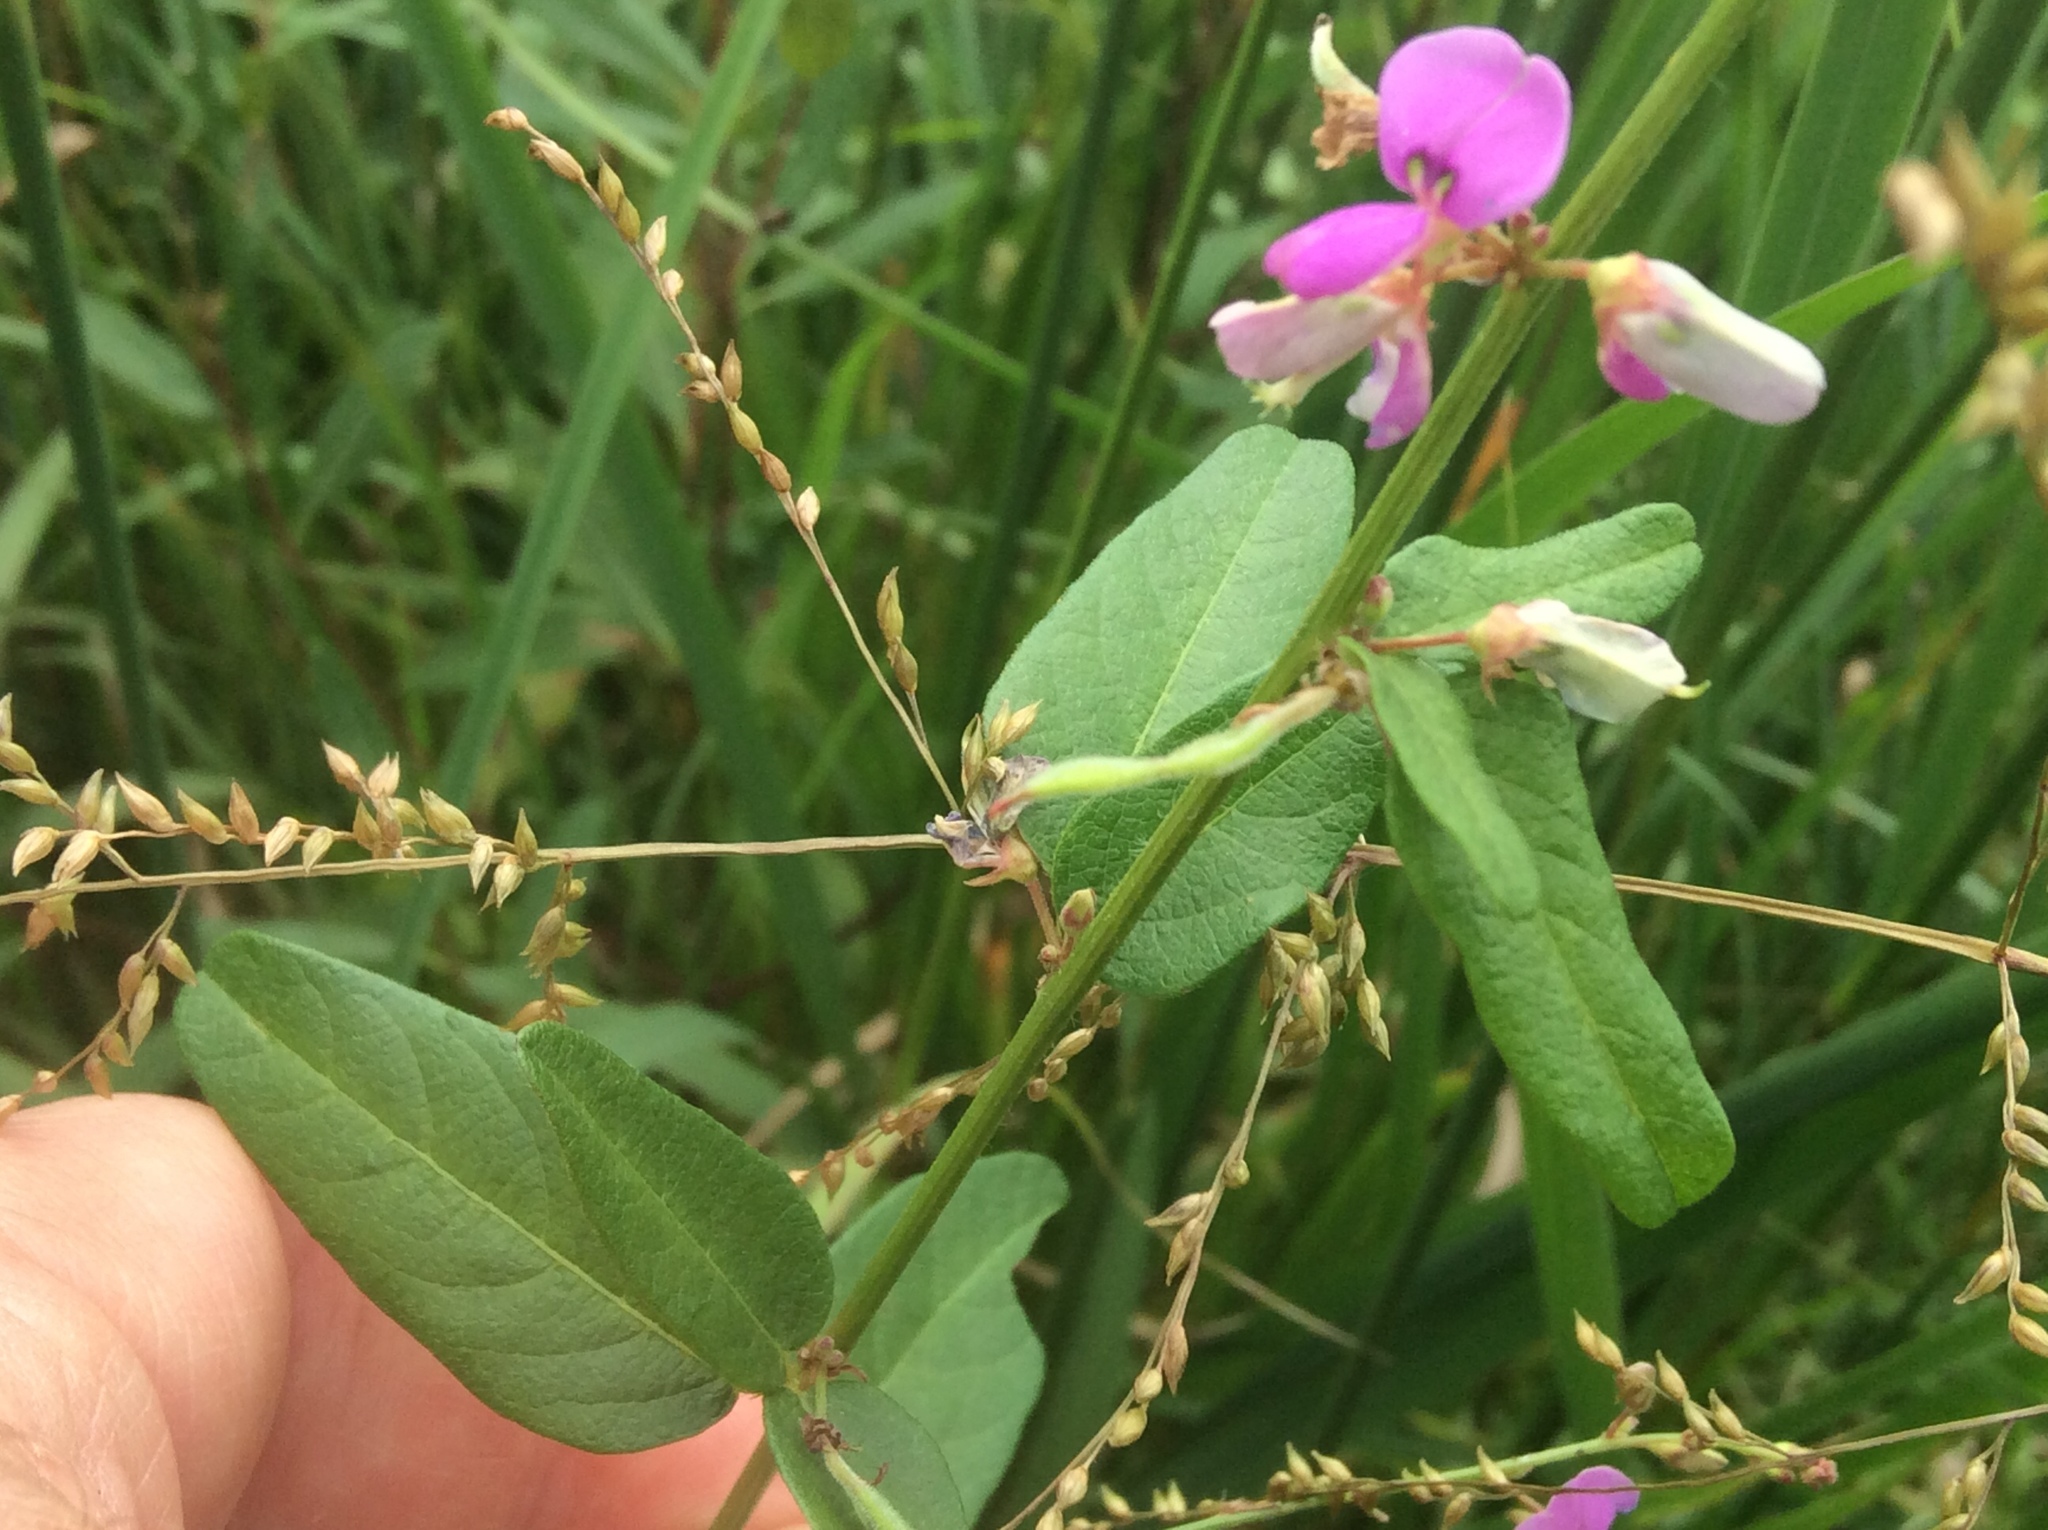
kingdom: Plantae
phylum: Tracheophyta
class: Magnoliopsida
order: Fabales
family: Fabaceae
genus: Desmodium
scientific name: Desmodium glabellum
